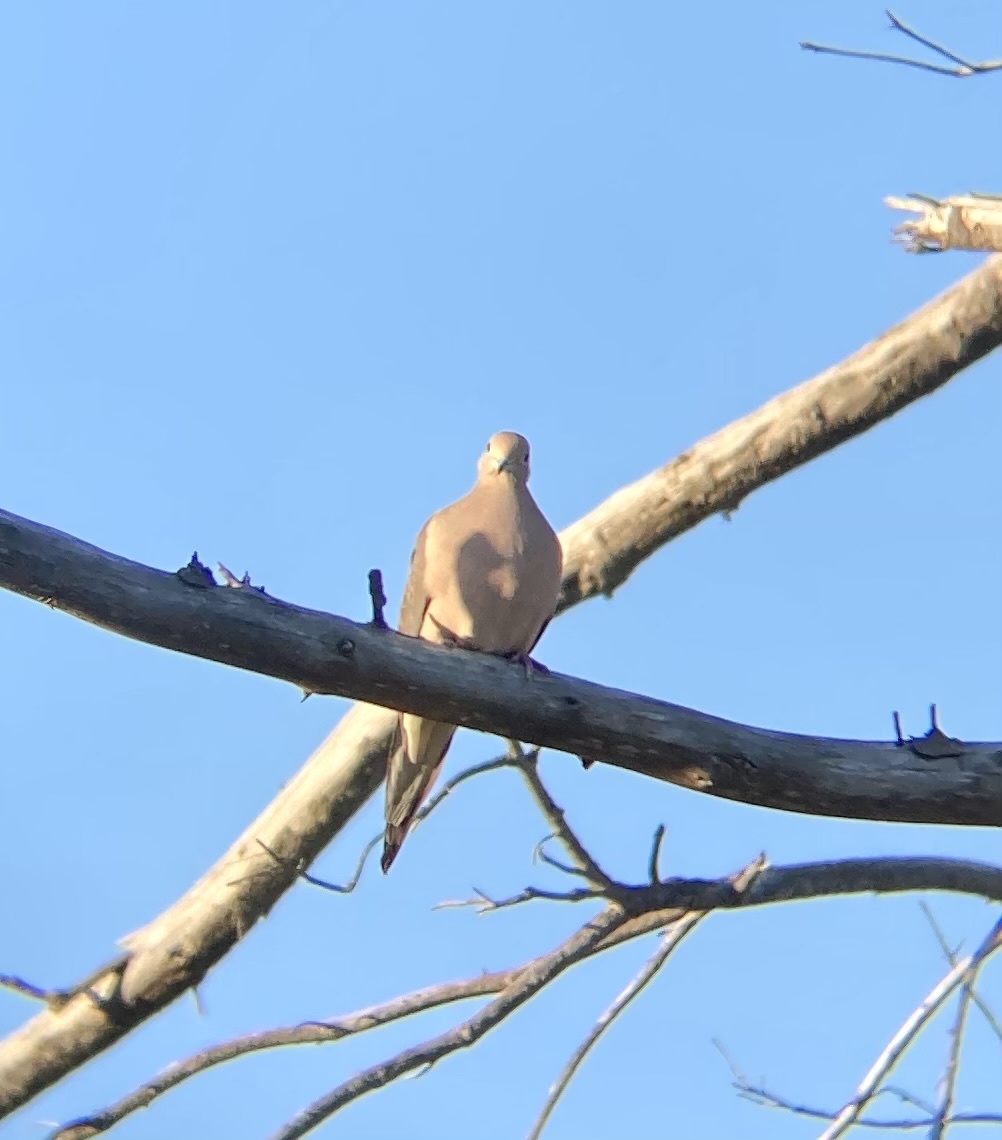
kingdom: Animalia
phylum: Chordata
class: Aves
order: Columbiformes
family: Columbidae
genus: Zenaida
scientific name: Zenaida macroura
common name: Mourning dove
